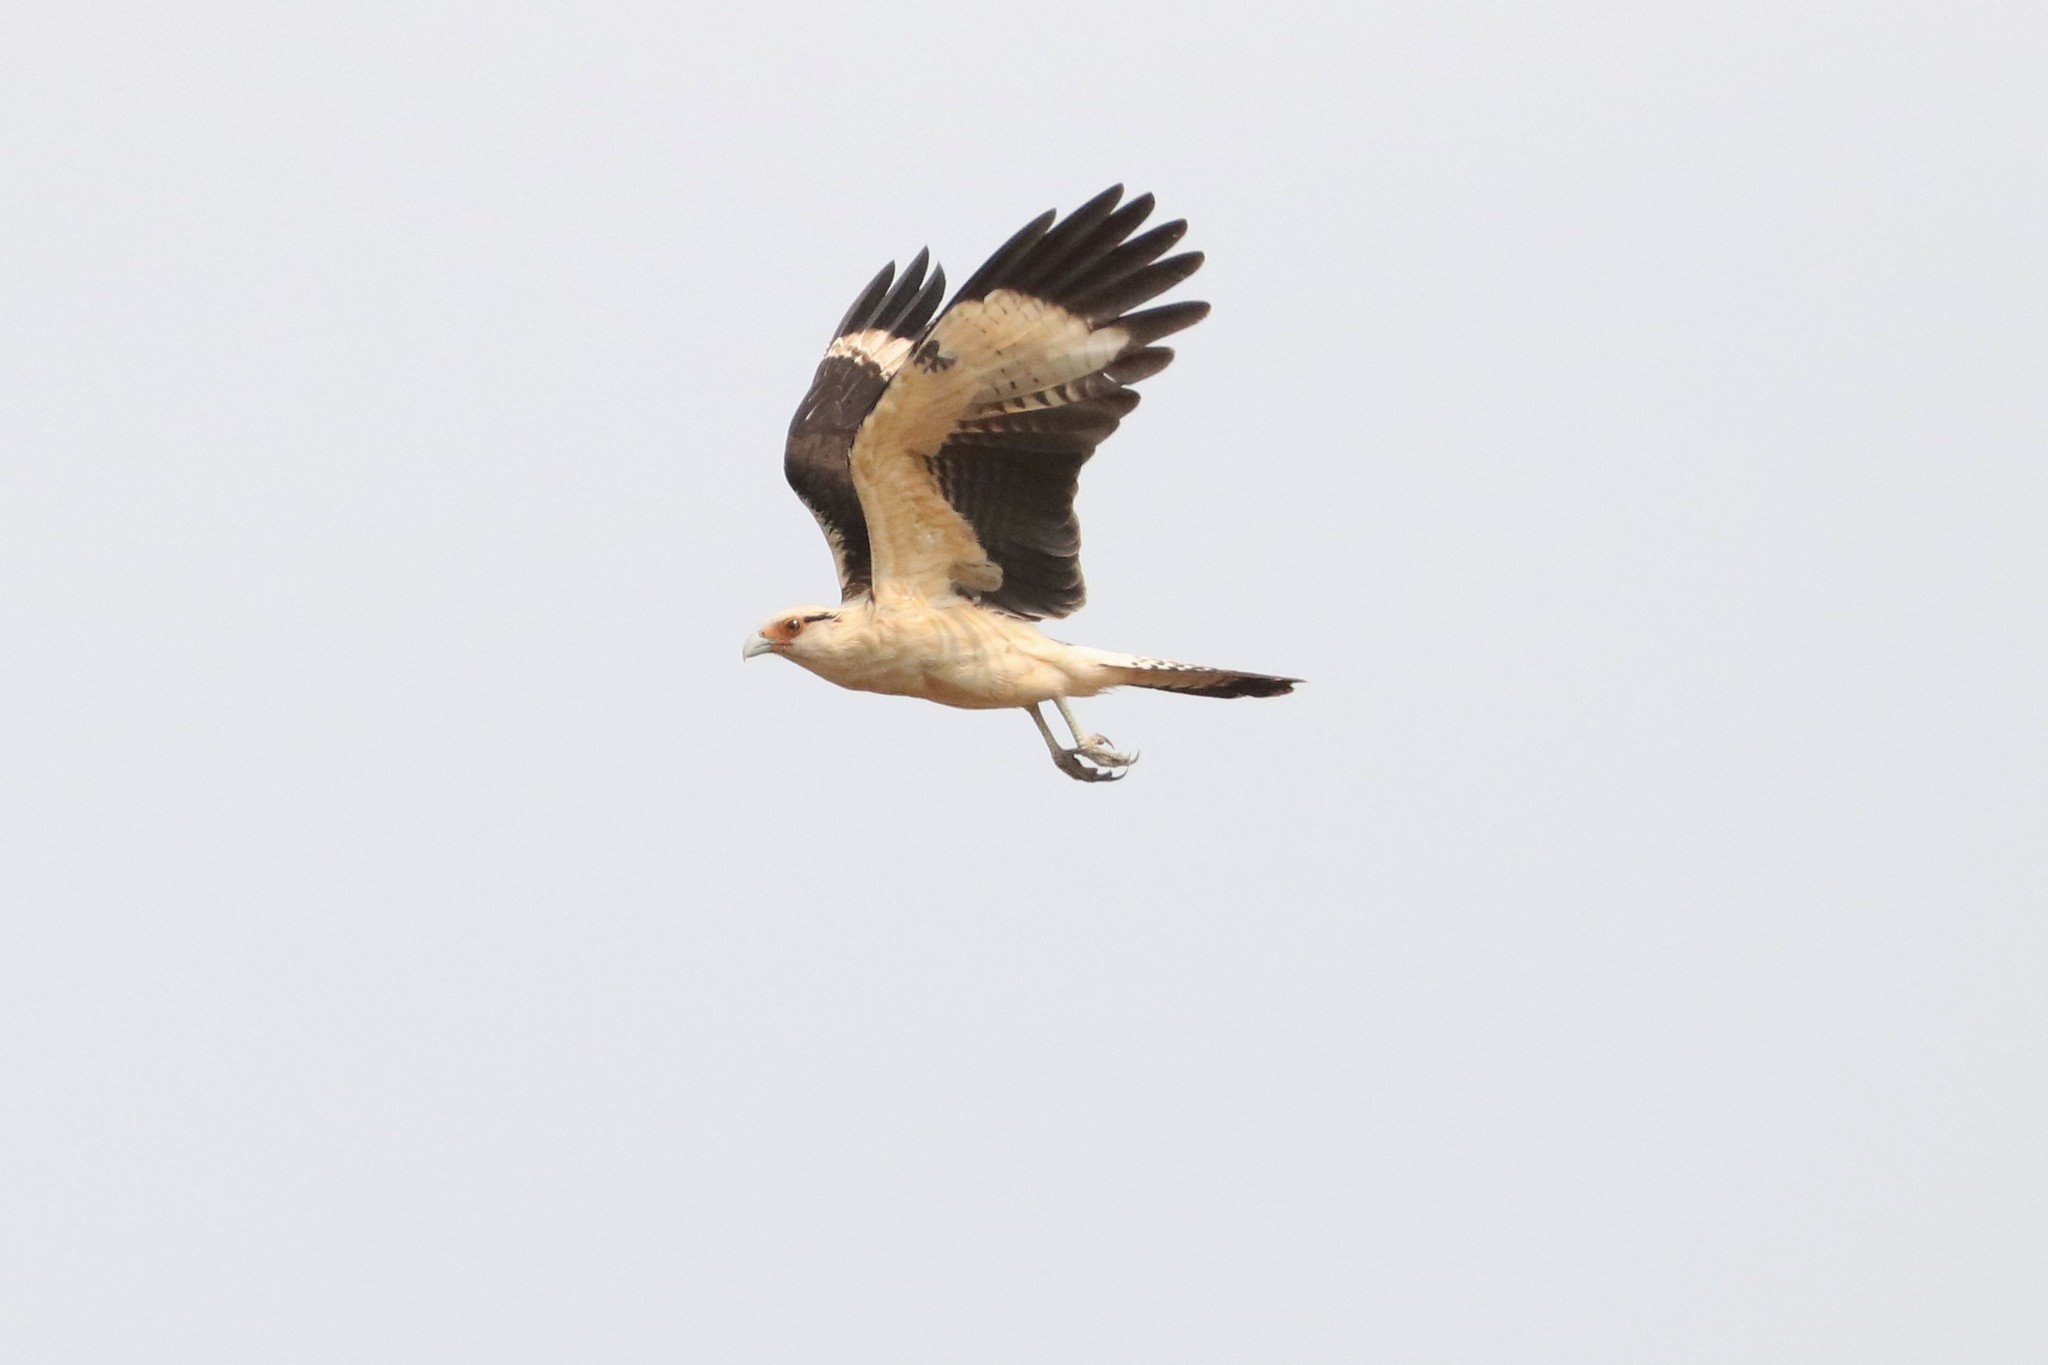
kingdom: Animalia
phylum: Chordata
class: Aves
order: Falconiformes
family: Falconidae
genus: Daptrius
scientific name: Daptrius
